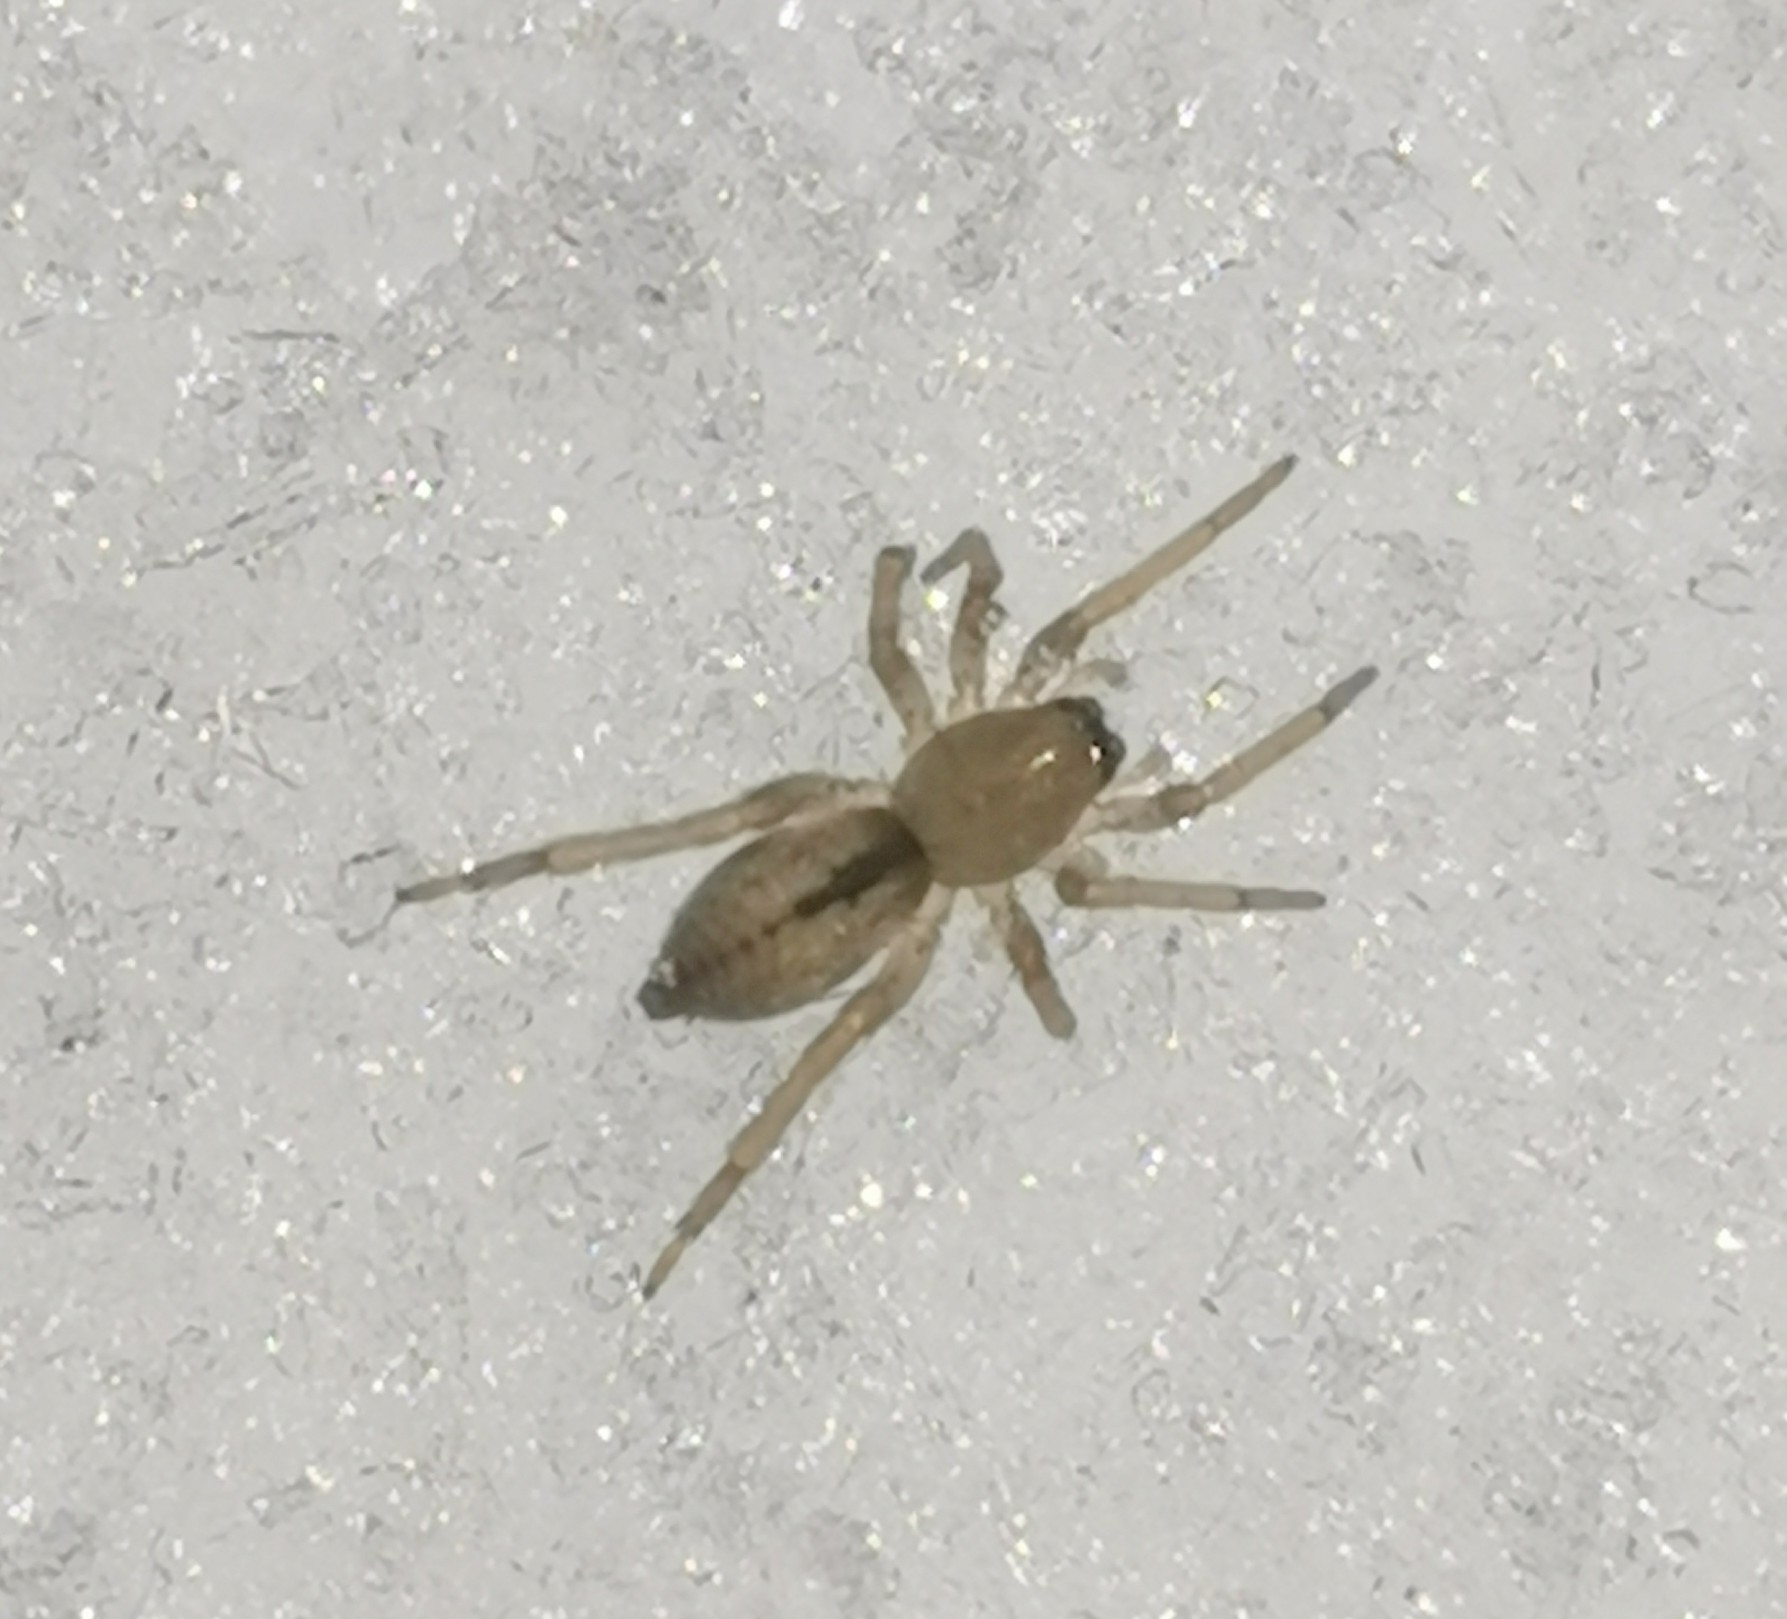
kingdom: Animalia
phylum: Arthropoda
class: Arachnida
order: Araneae
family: Clubionidae
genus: Clubiona
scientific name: Clubiona subsultans
